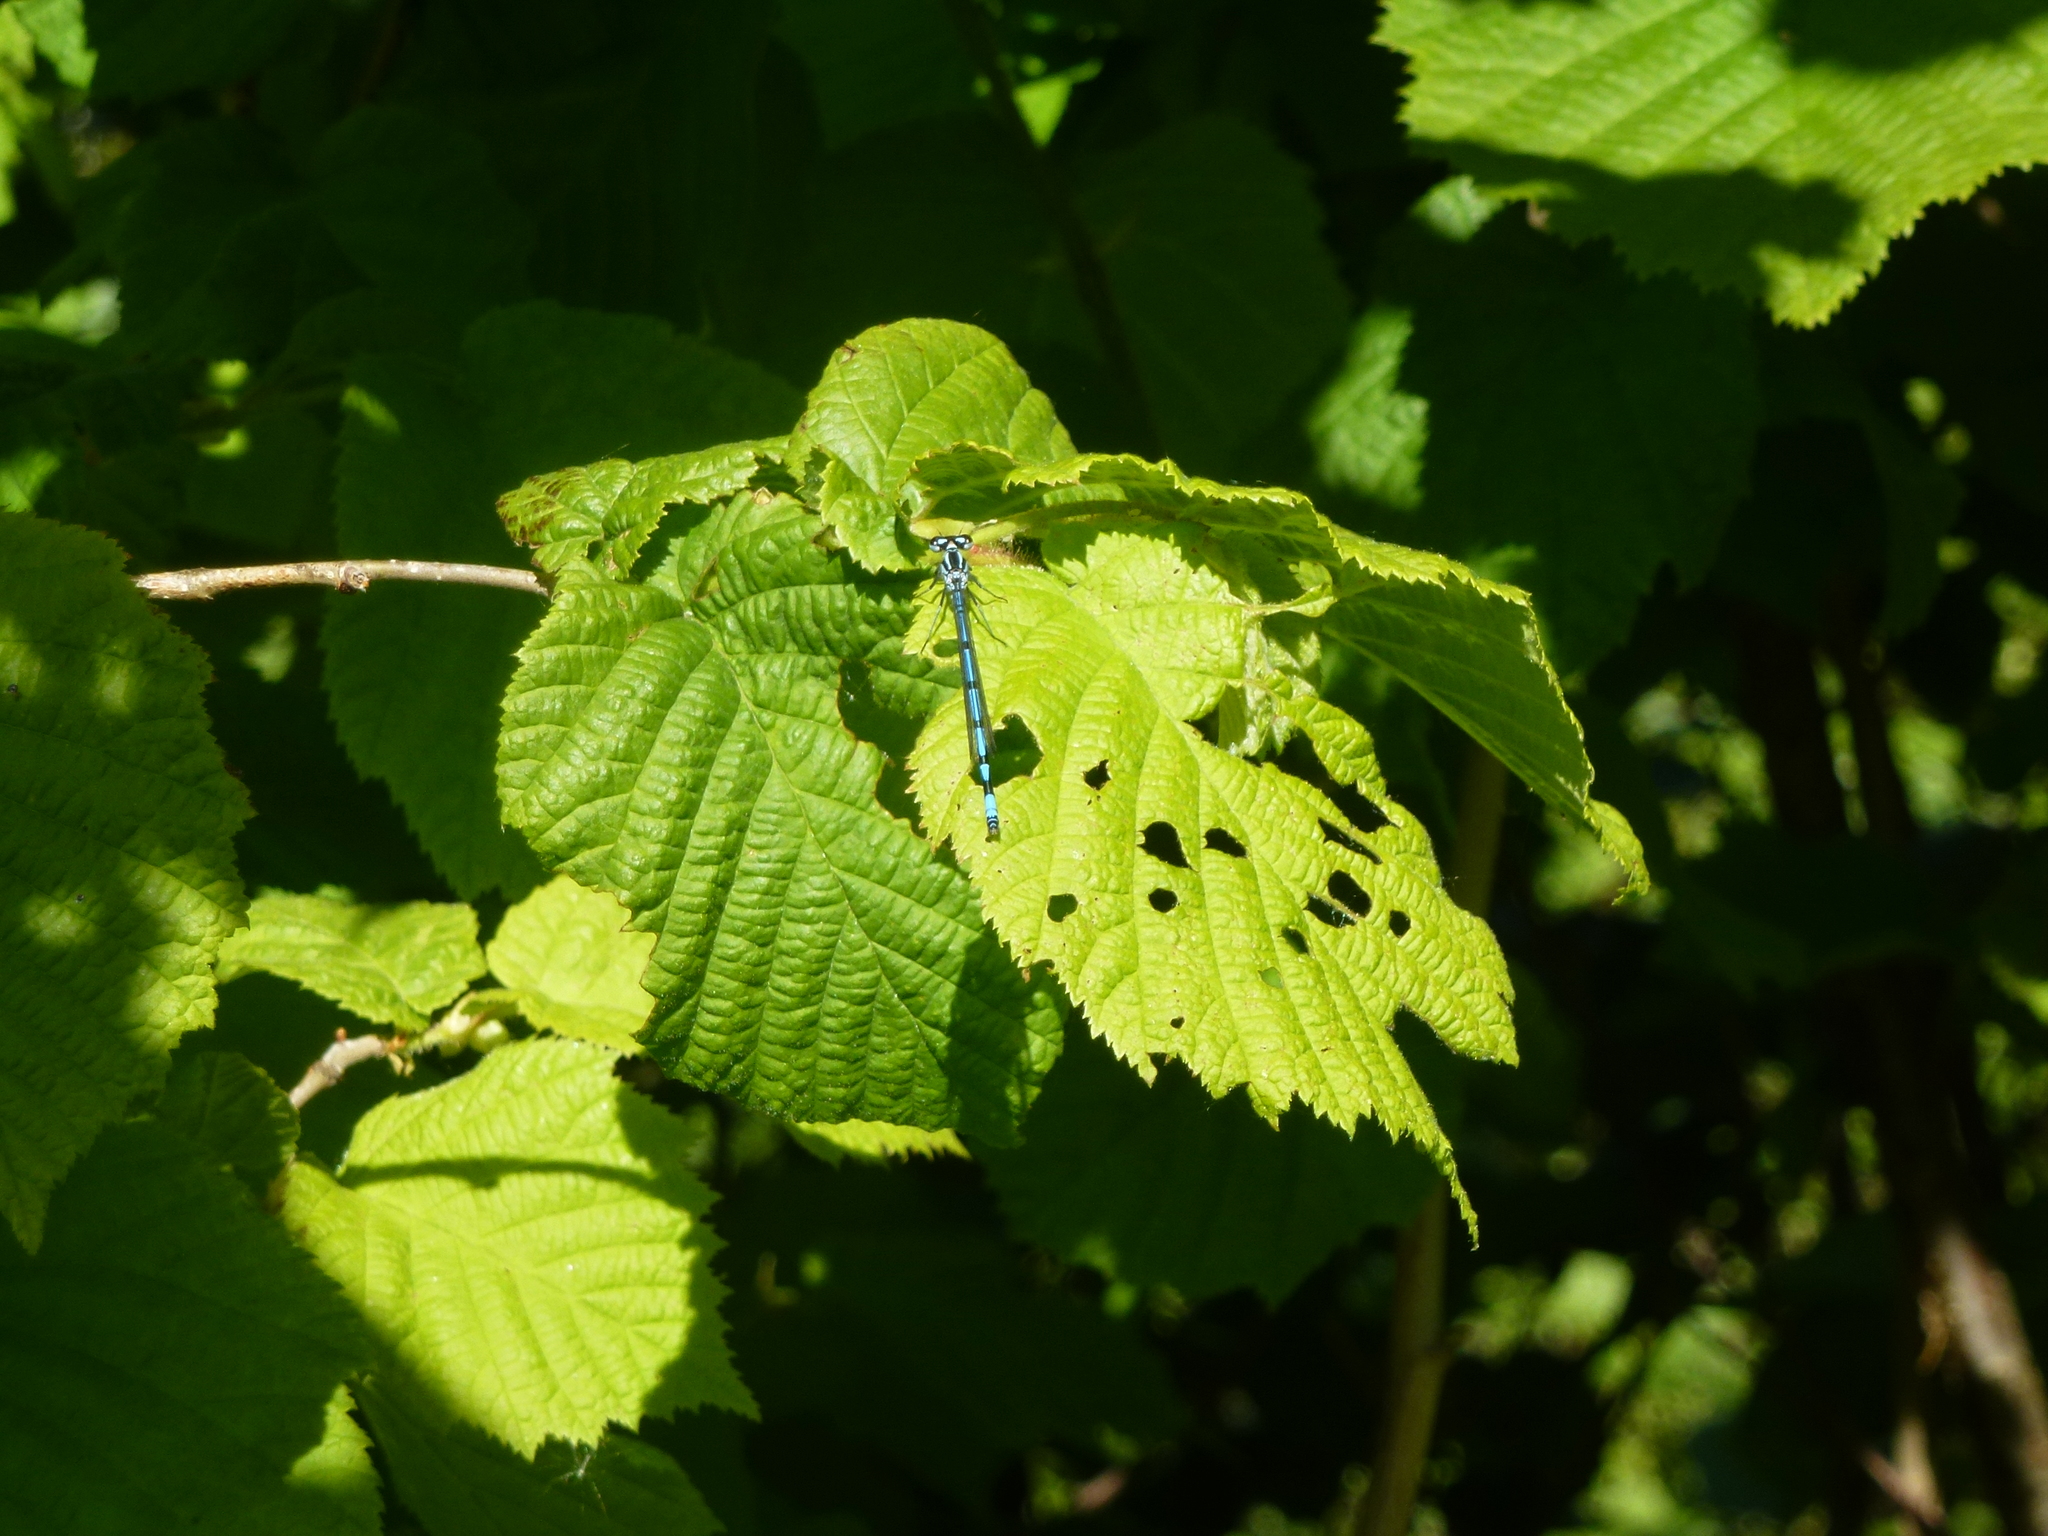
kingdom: Animalia
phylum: Arthropoda
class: Insecta
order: Odonata
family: Coenagrionidae
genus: Coenagrion
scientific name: Coenagrion puella
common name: Azure damselfly
